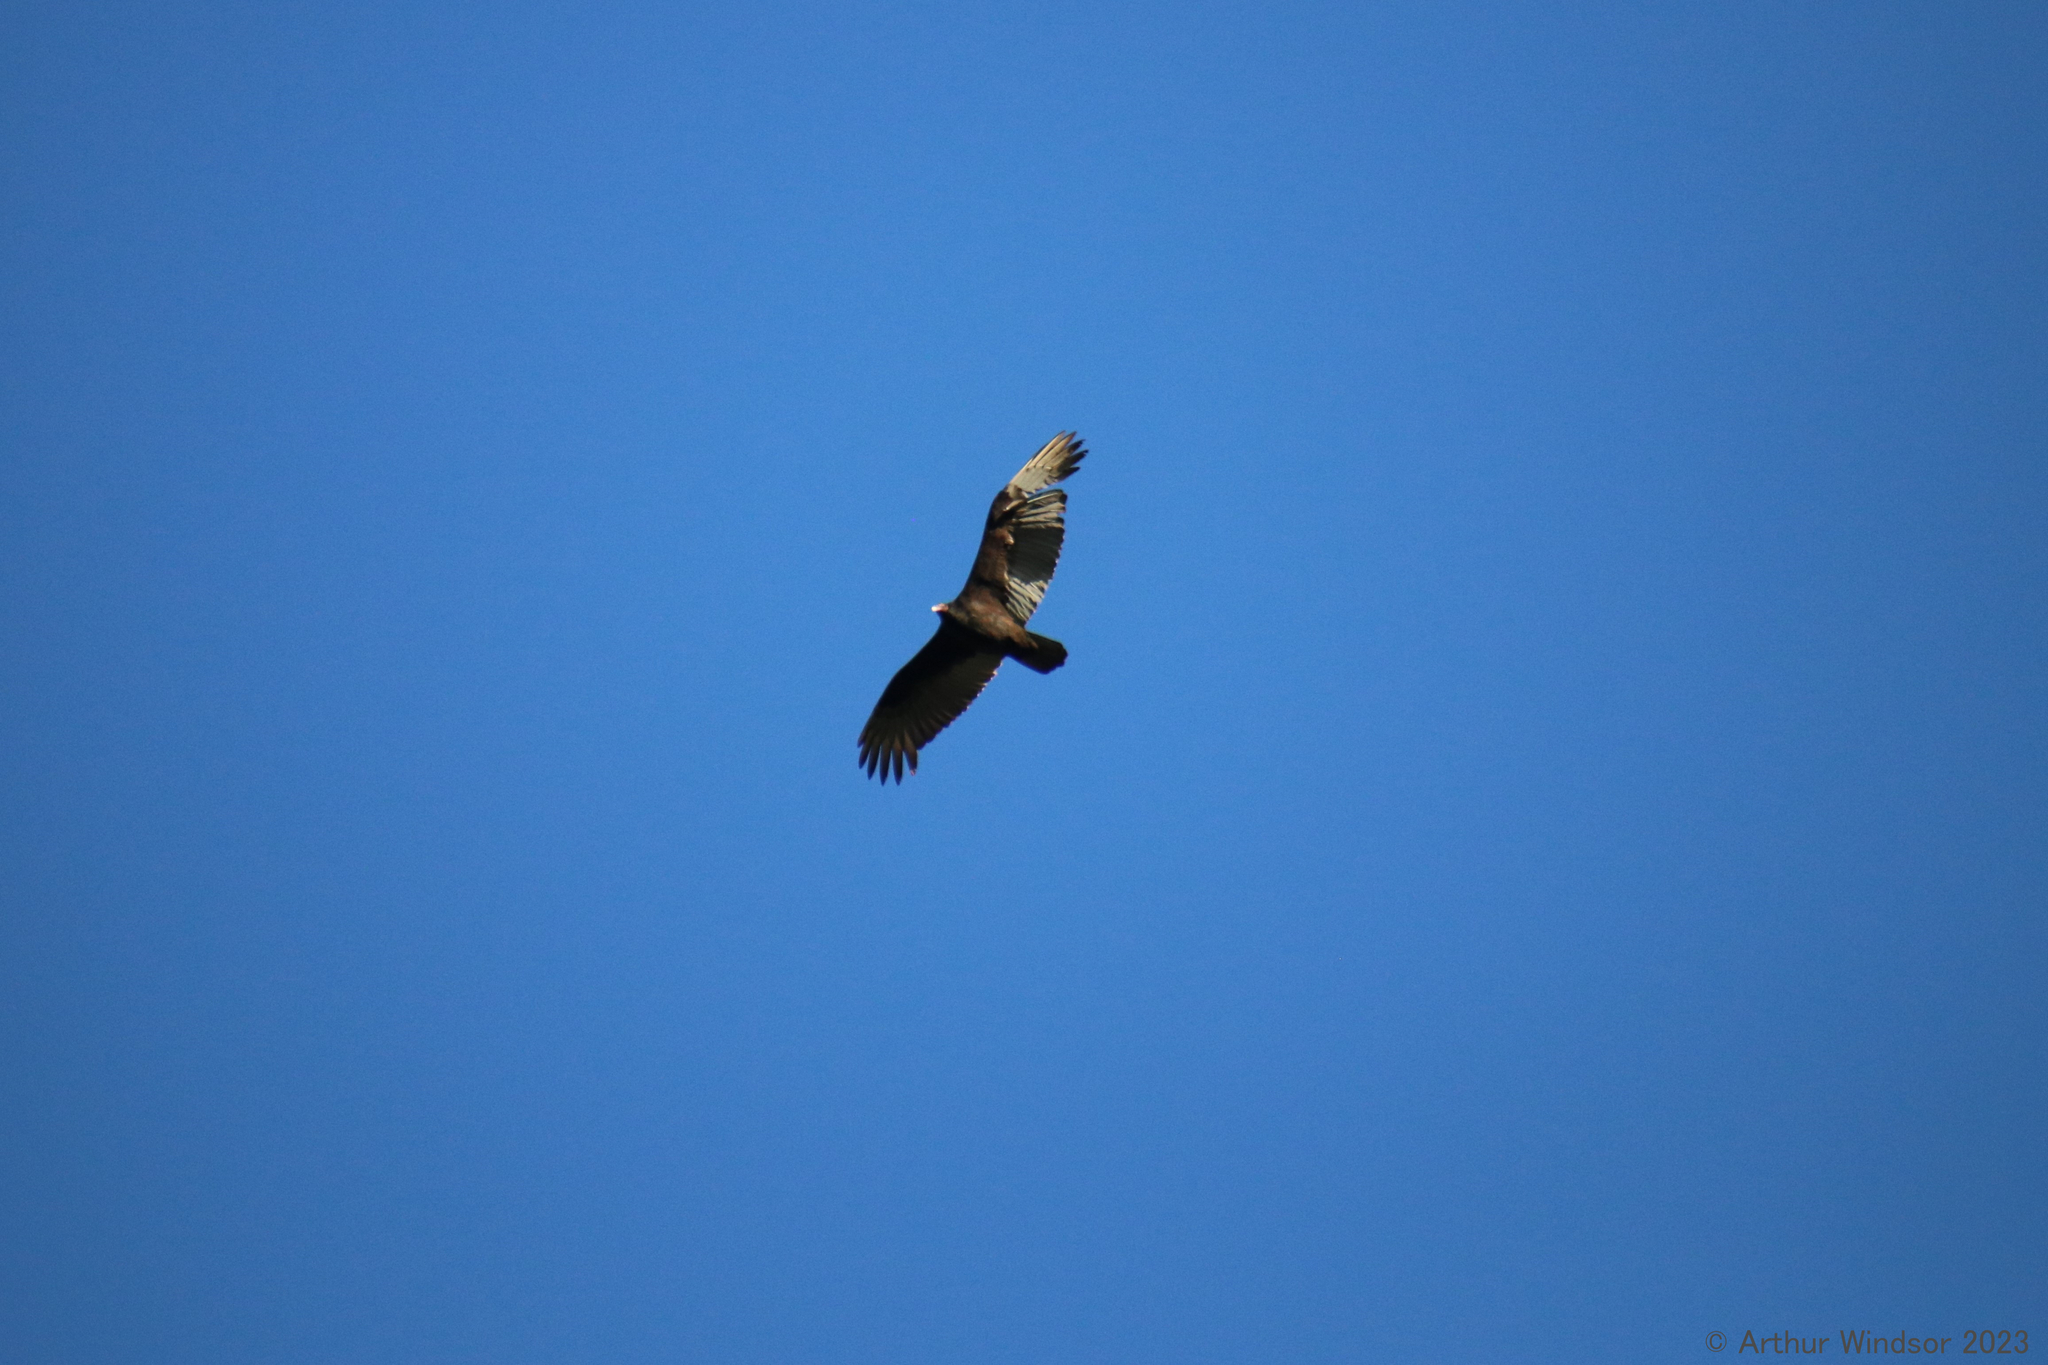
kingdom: Animalia
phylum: Chordata
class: Aves
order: Accipitriformes
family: Cathartidae
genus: Cathartes
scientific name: Cathartes aura
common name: Turkey vulture
